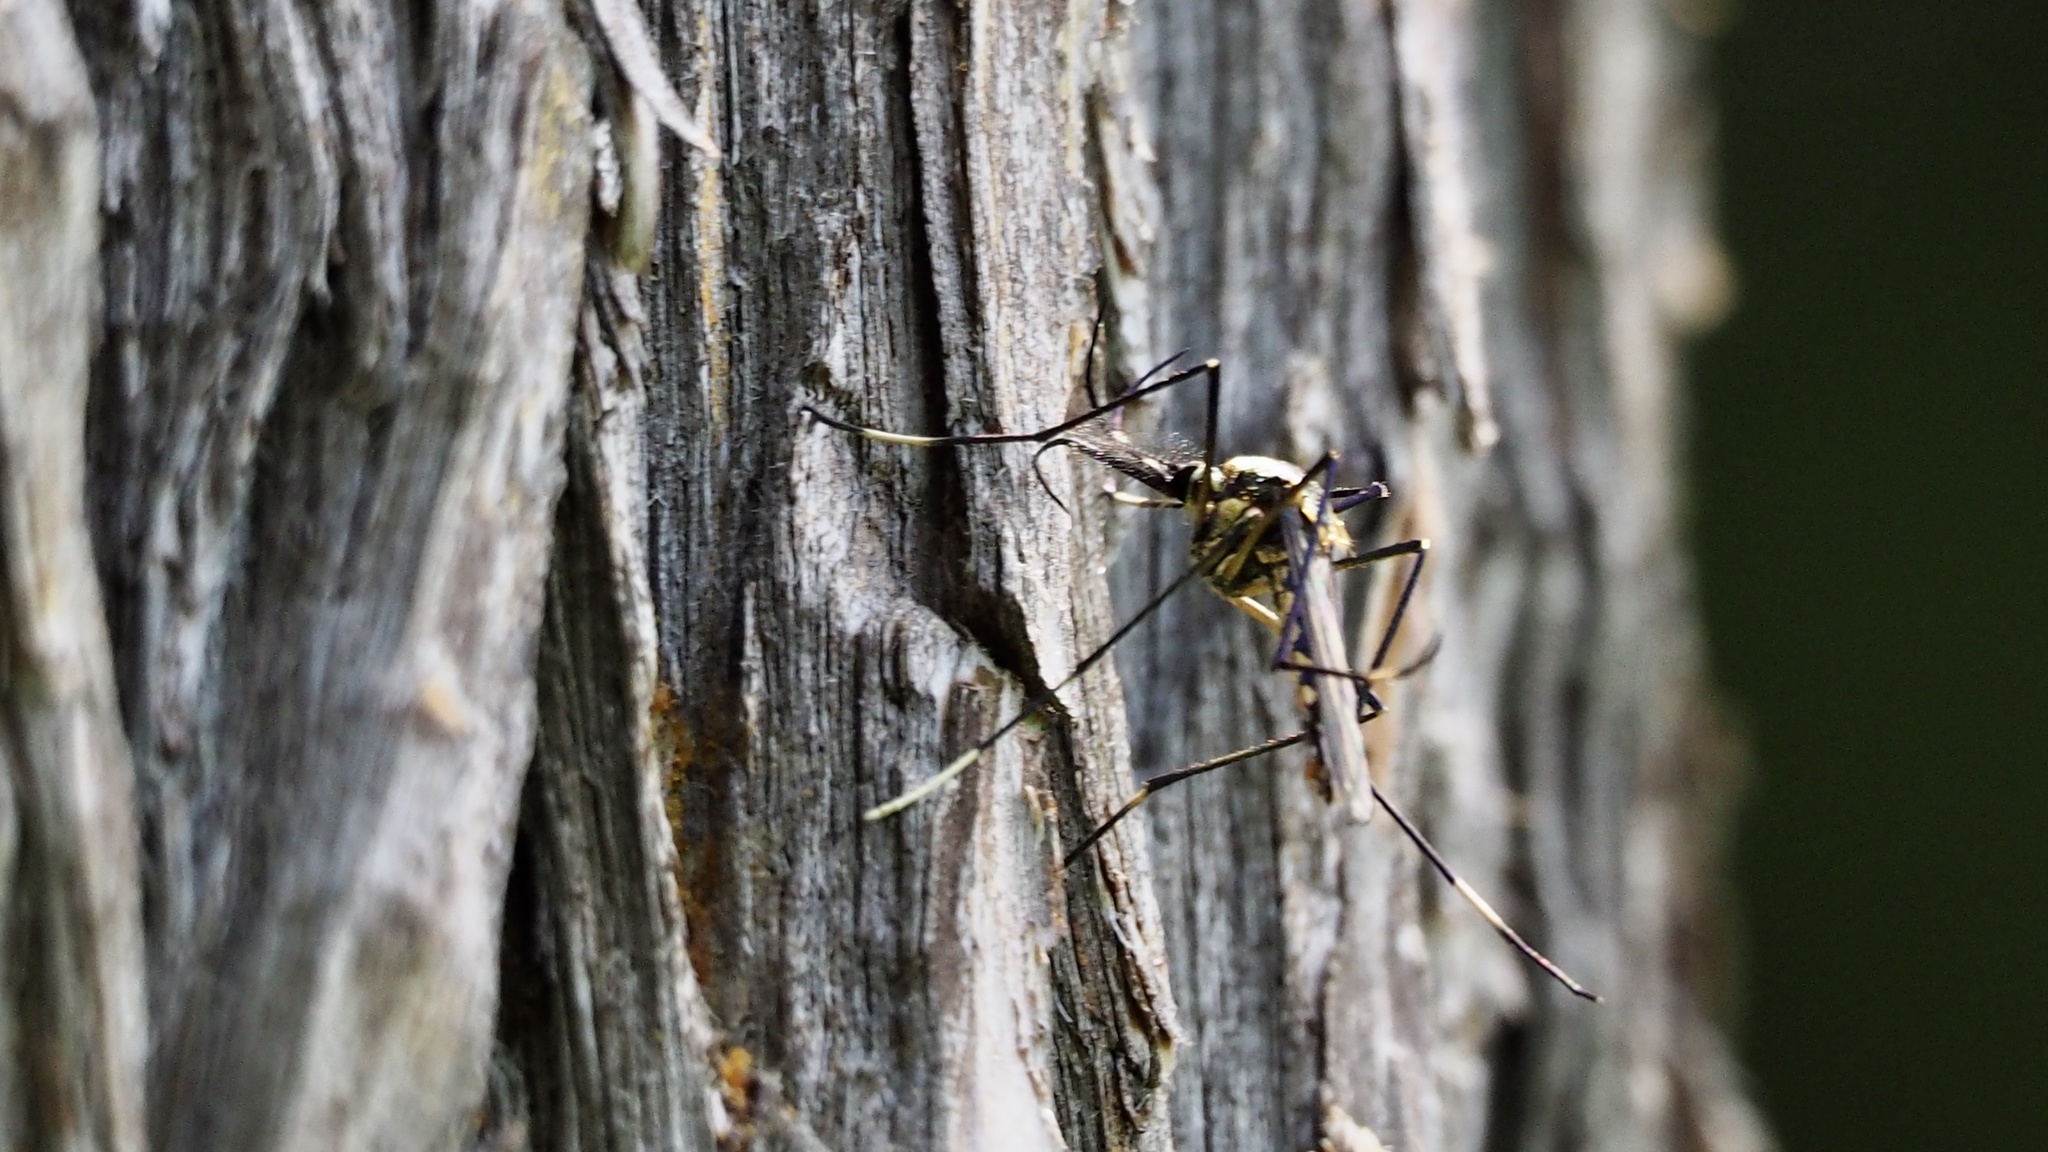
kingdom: Animalia
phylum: Arthropoda
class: Insecta
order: Diptera
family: Culicidae
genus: Toxorhynchites
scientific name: Toxorhynchites towadensis
